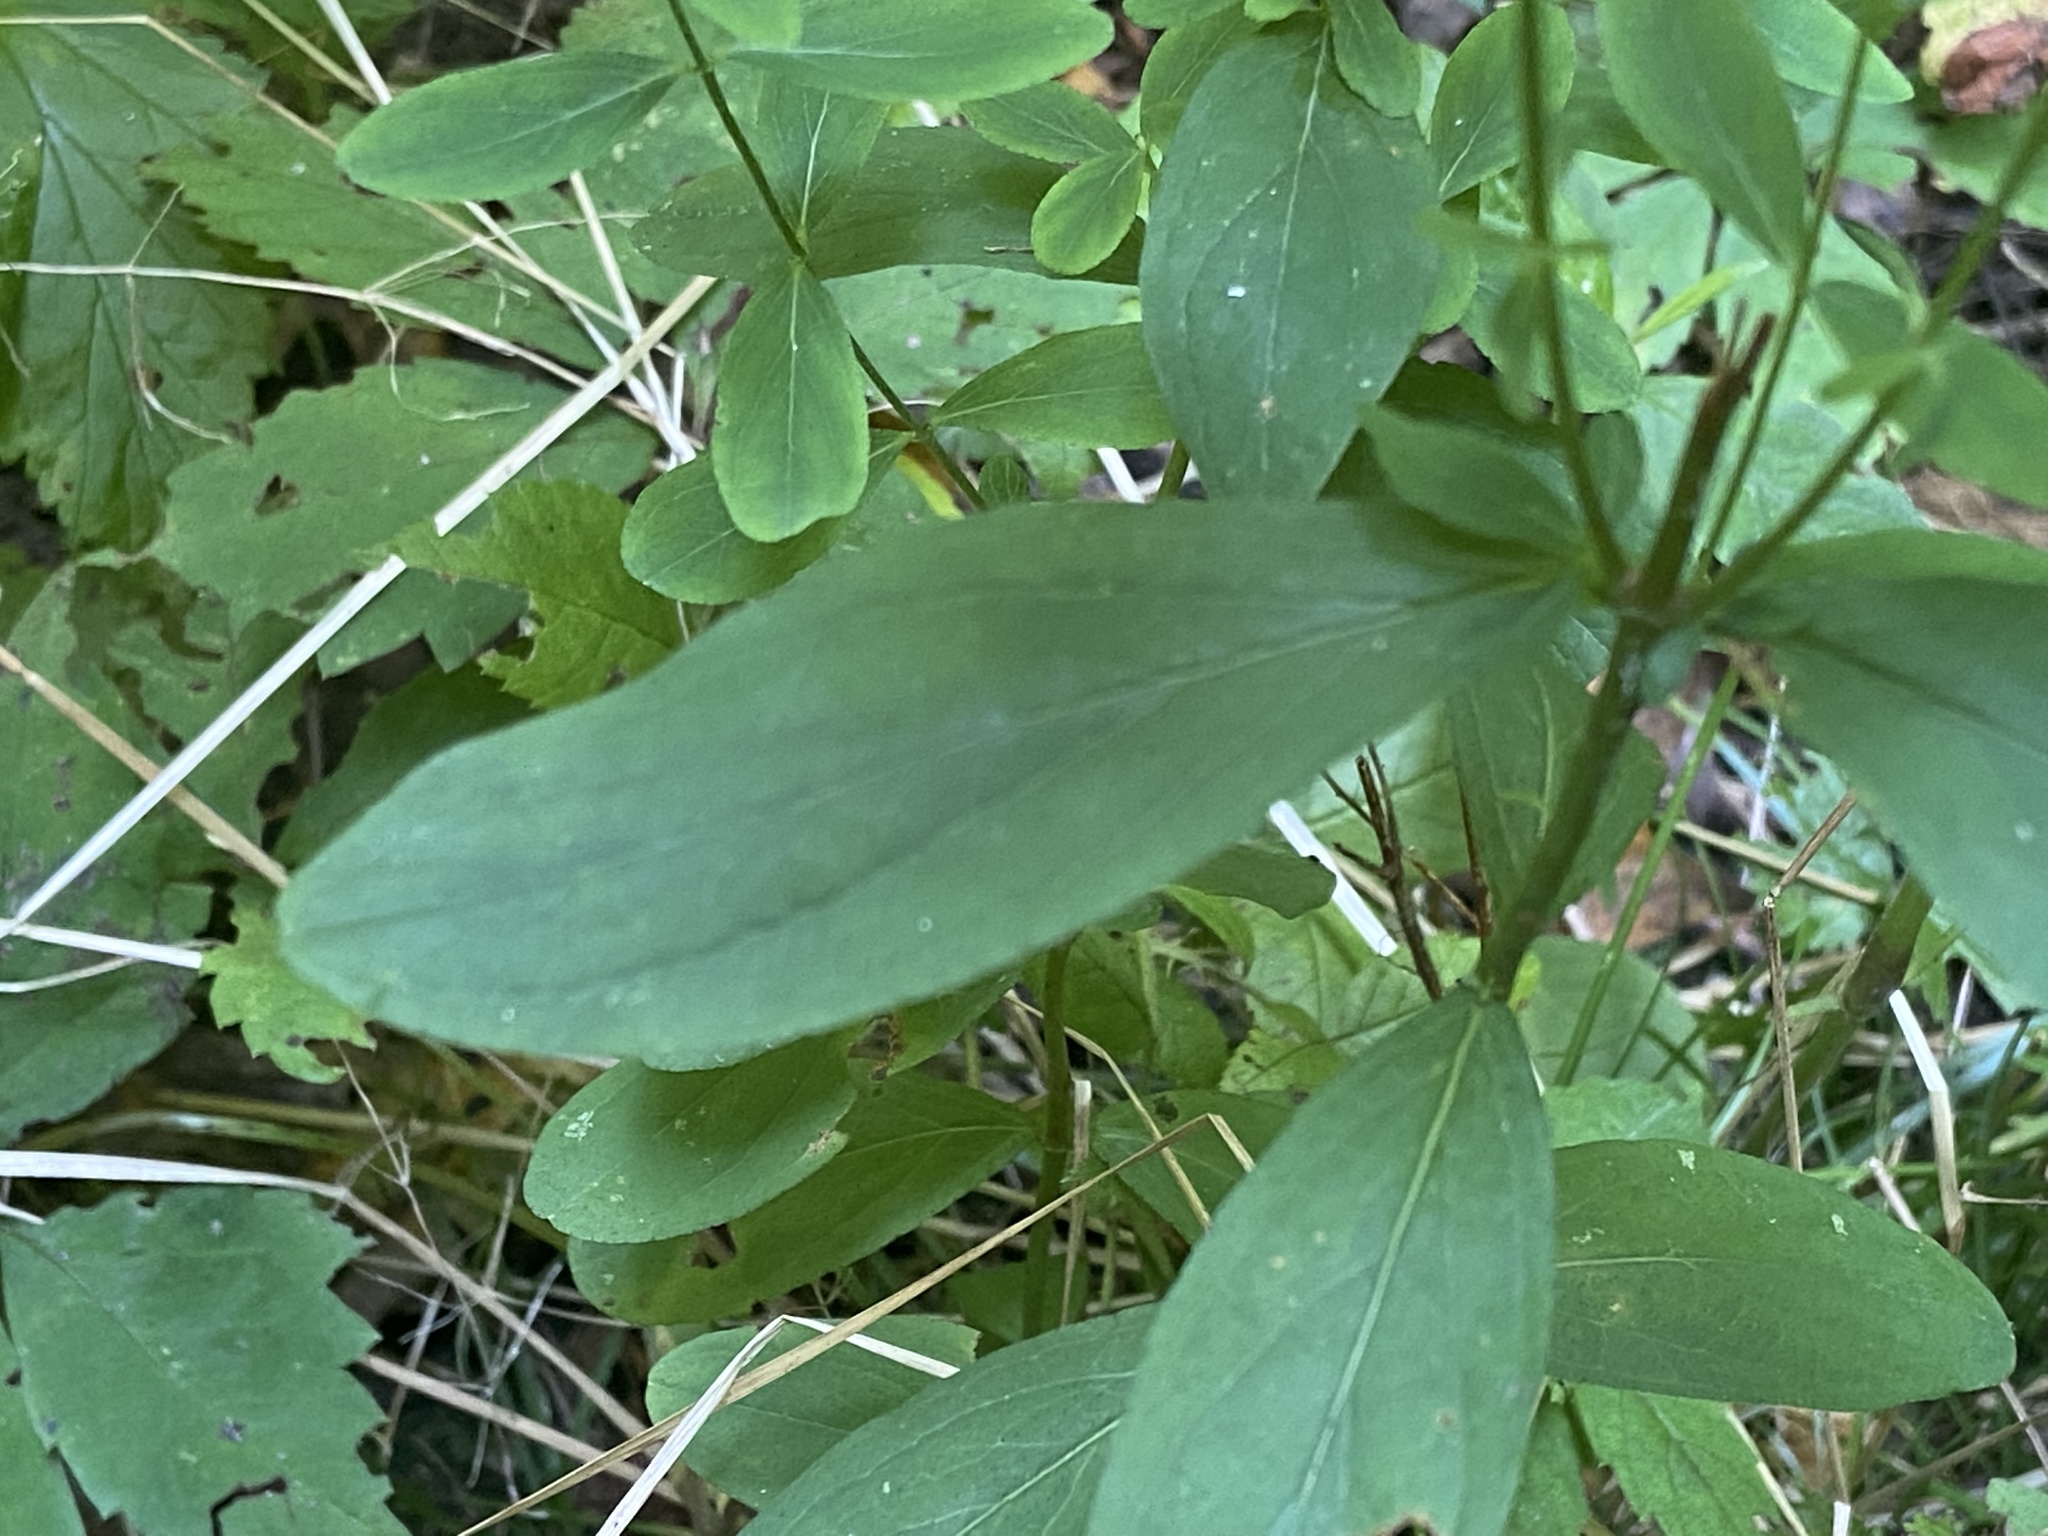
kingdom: Plantae
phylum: Tracheophyta
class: Magnoliopsida
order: Malpighiales
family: Hypericaceae
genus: Hypericum
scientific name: Hypericum punctatum
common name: Spotted st. john's-wort
